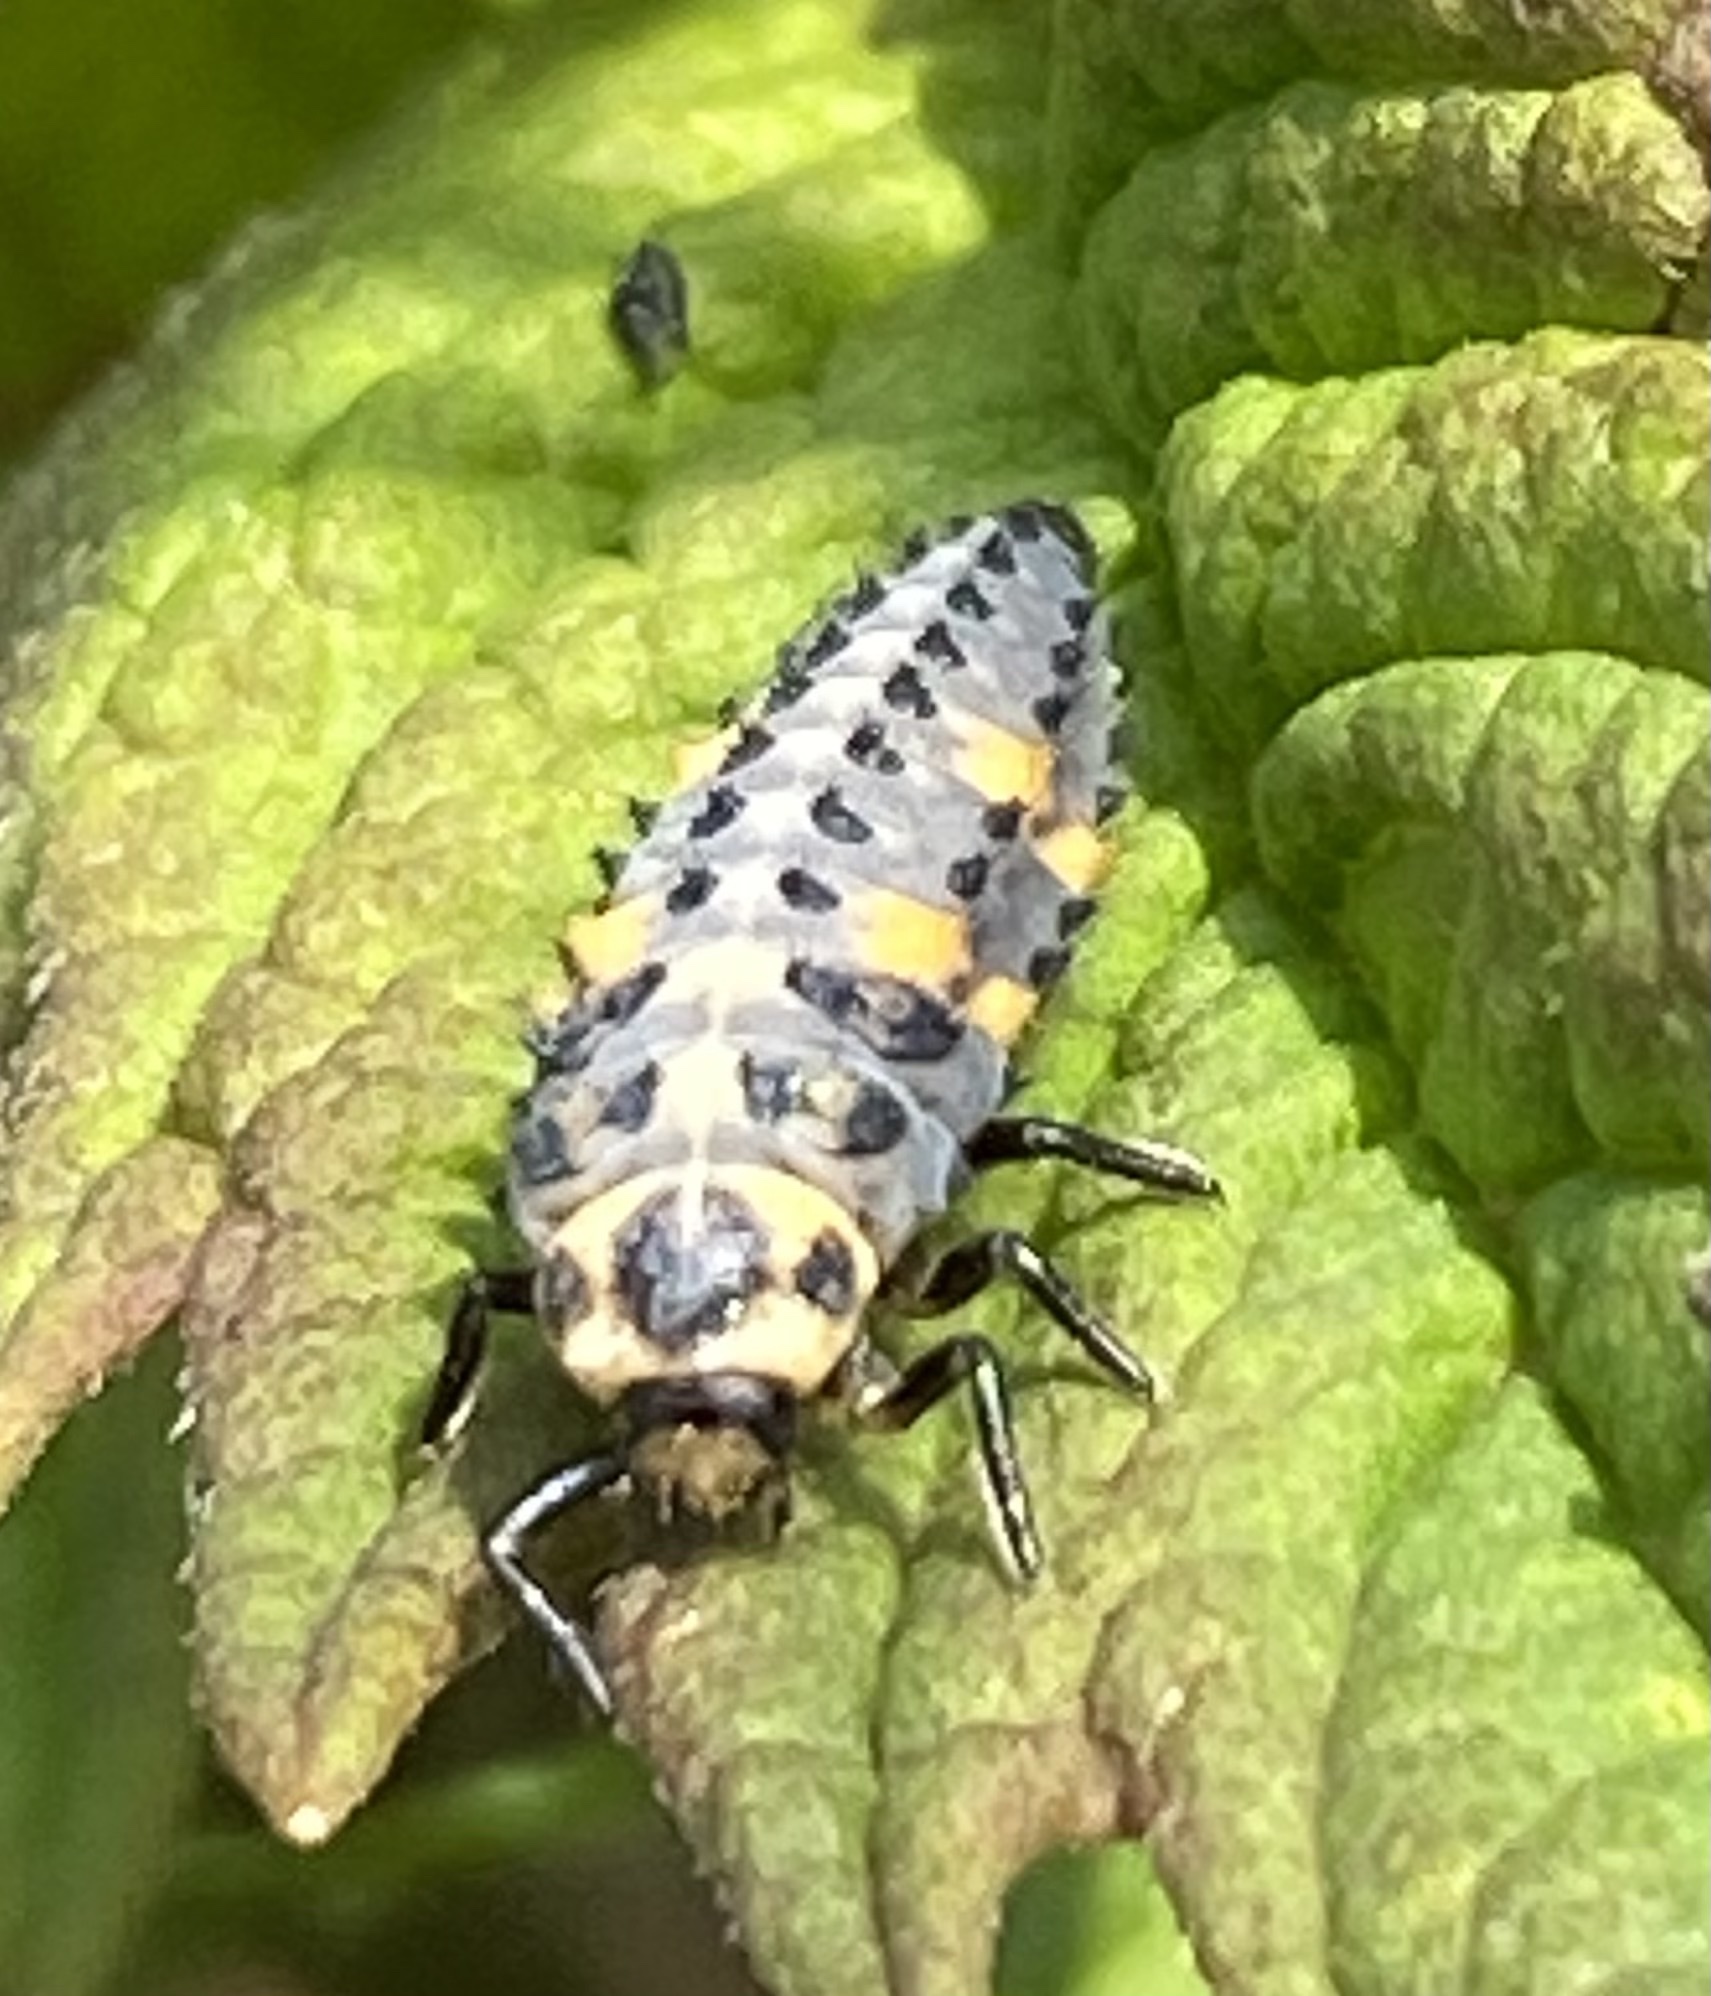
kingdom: Animalia
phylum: Arthropoda
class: Insecta
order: Coleoptera
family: Coccinellidae
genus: Coccinella
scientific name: Coccinella septempunctata
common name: Sevenspotted lady beetle
